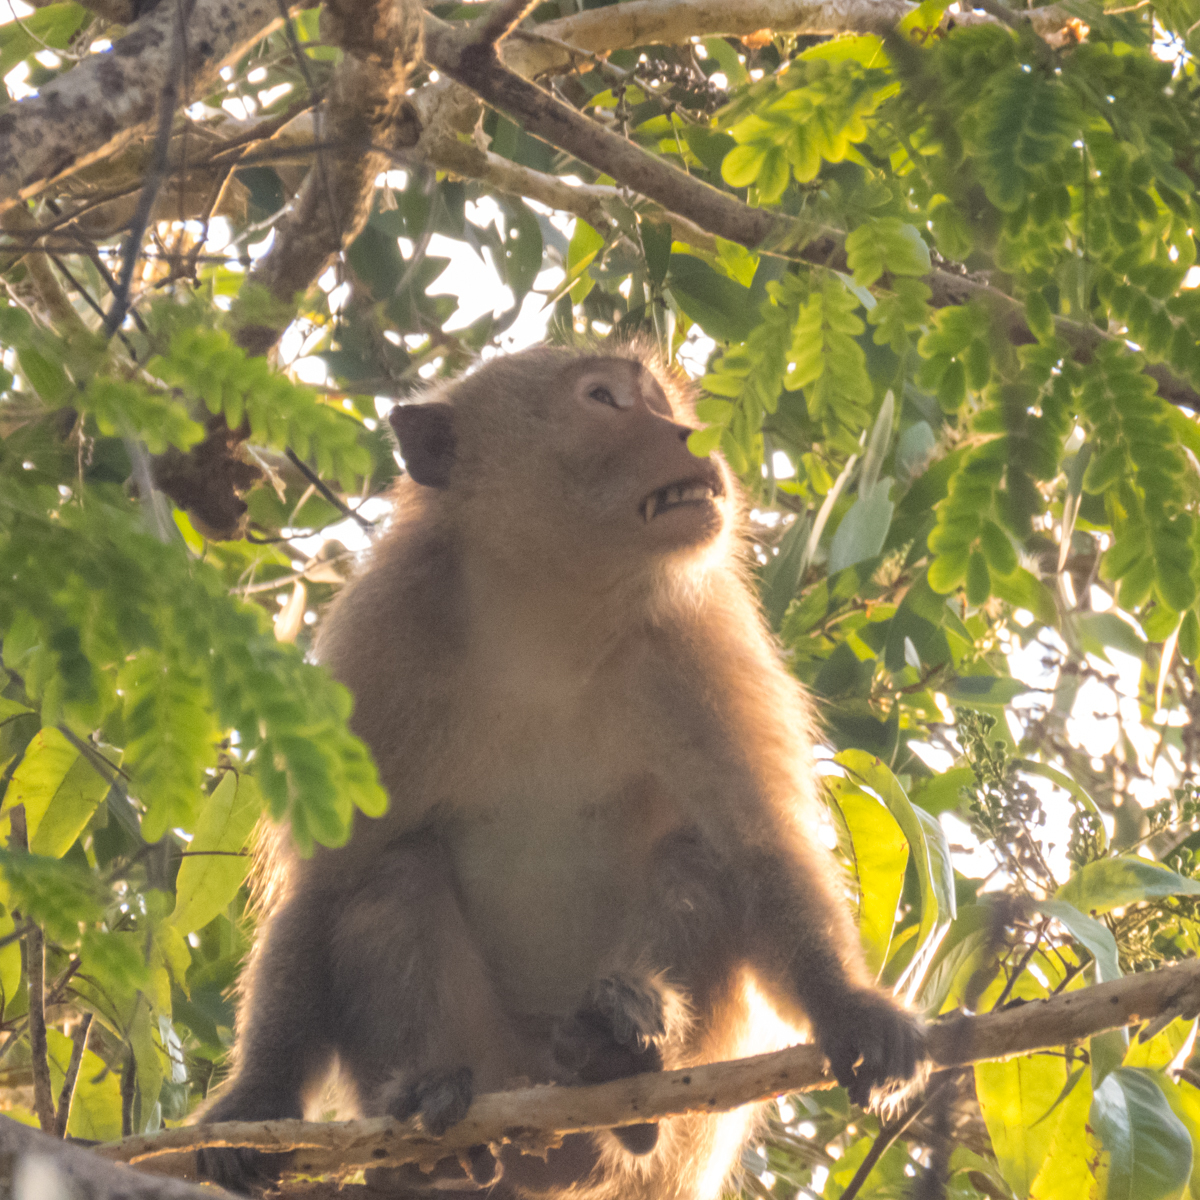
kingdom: Animalia
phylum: Chordata
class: Mammalia
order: Primates
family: Cercopithecidae
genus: Macaca
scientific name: Macaca fascicularis
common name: Crab-eating macaque
